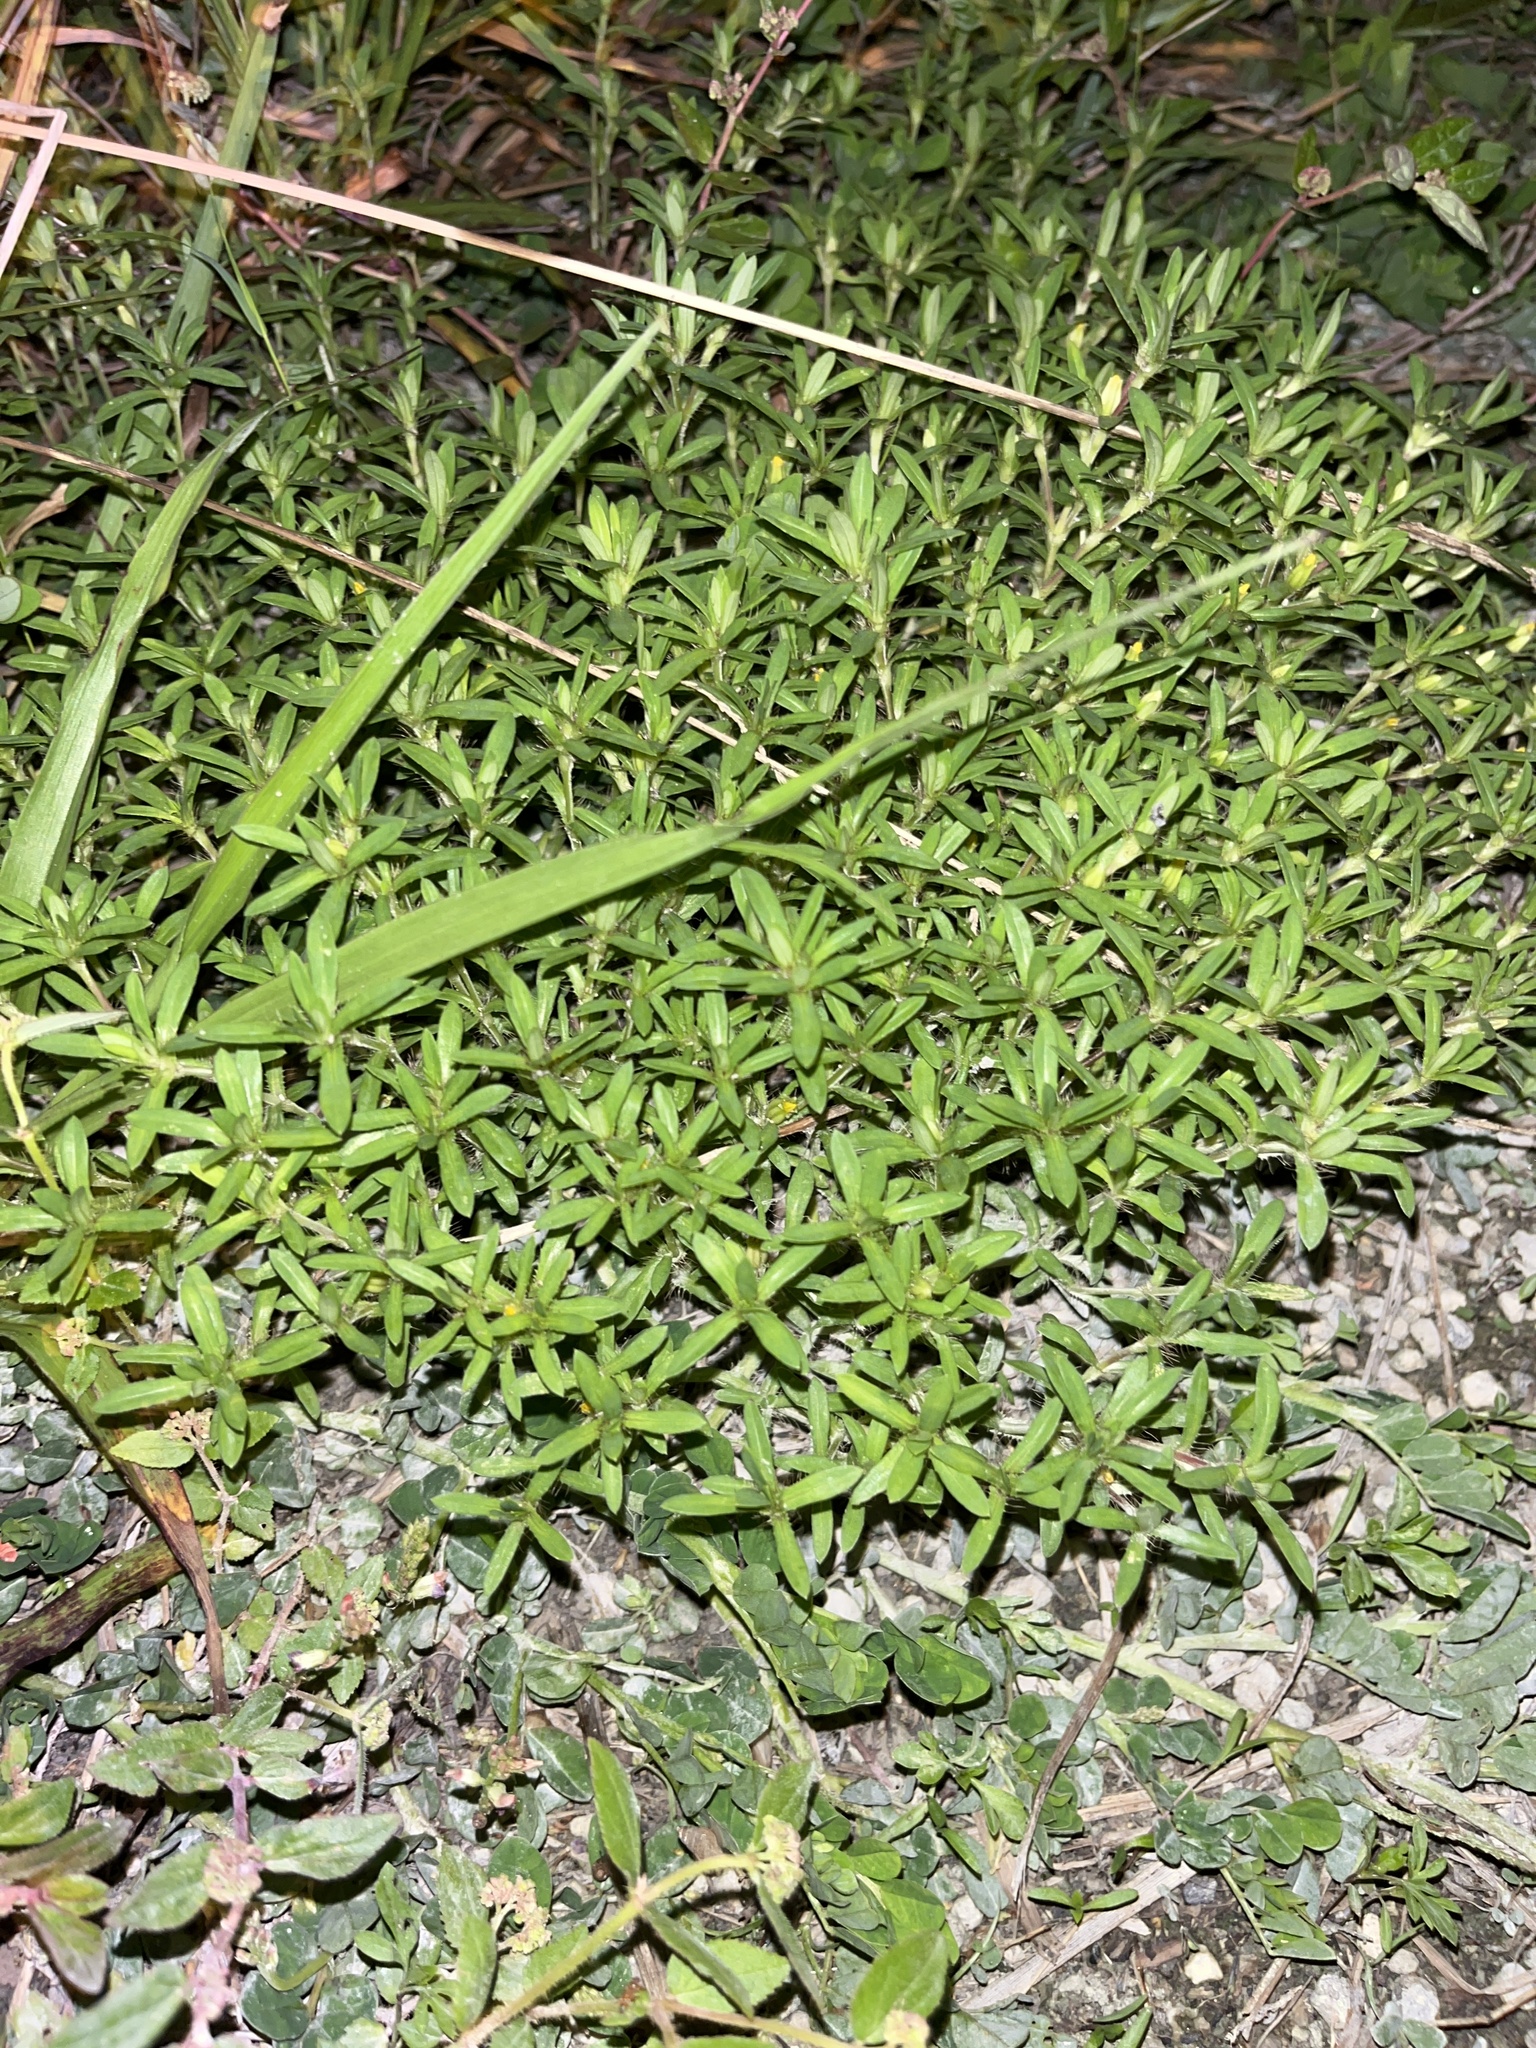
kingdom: Plantae
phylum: Tracheophyta
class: Magnoliopsida
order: Asterales
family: Asteraceae
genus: Pectis
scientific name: Pectis prostrata
